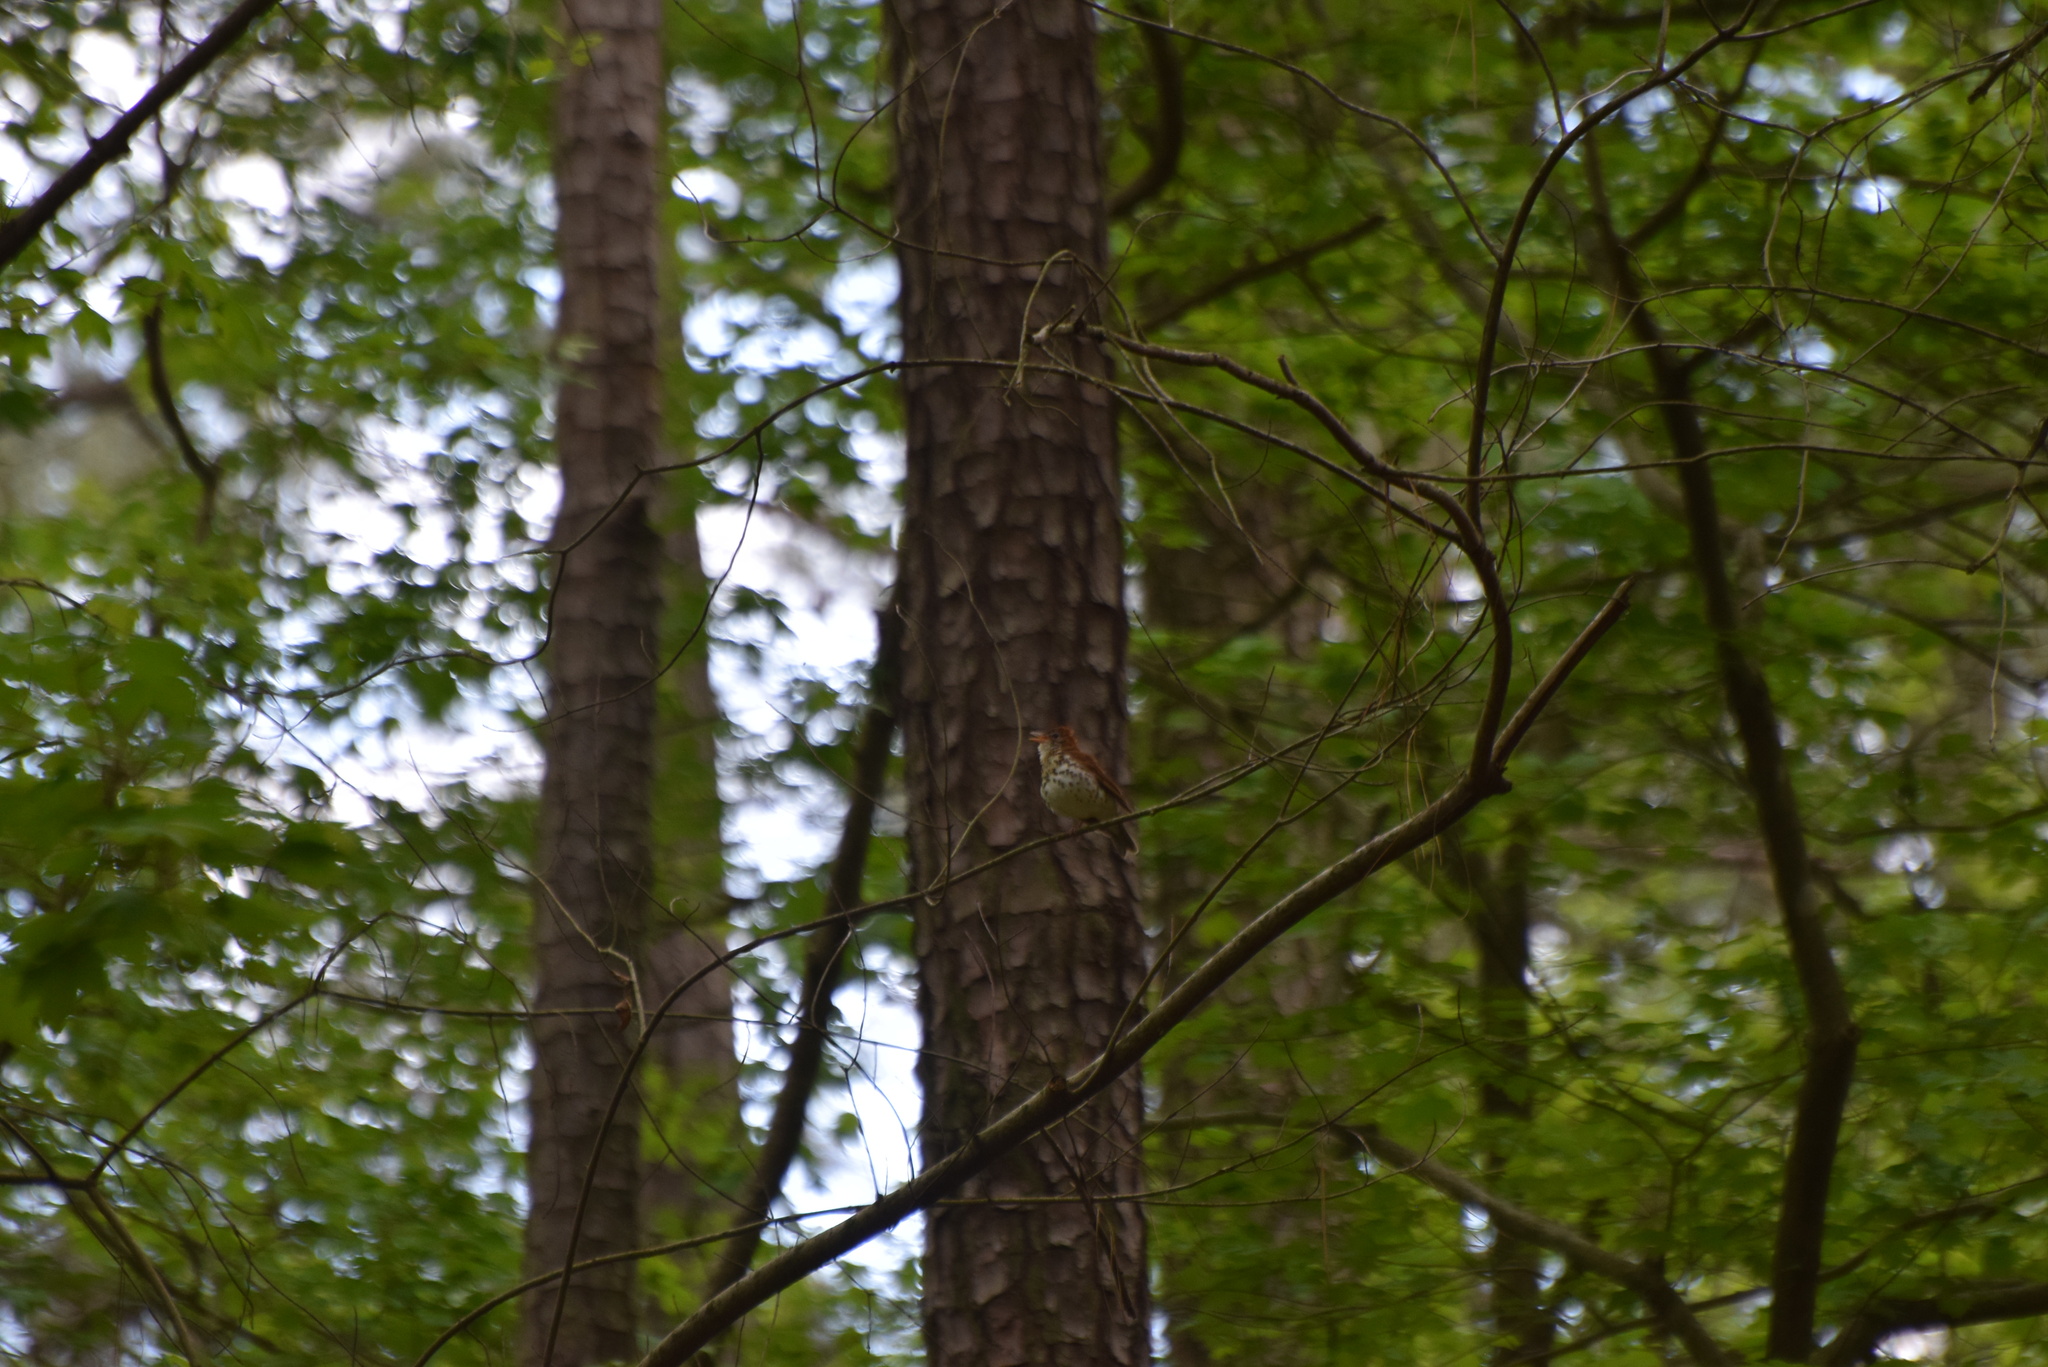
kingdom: Animalia
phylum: Chordata
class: Aves
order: Passeriformes
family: Turdidae
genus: Hylocichla
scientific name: Hylocichla mustelina
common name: Wood thrush
